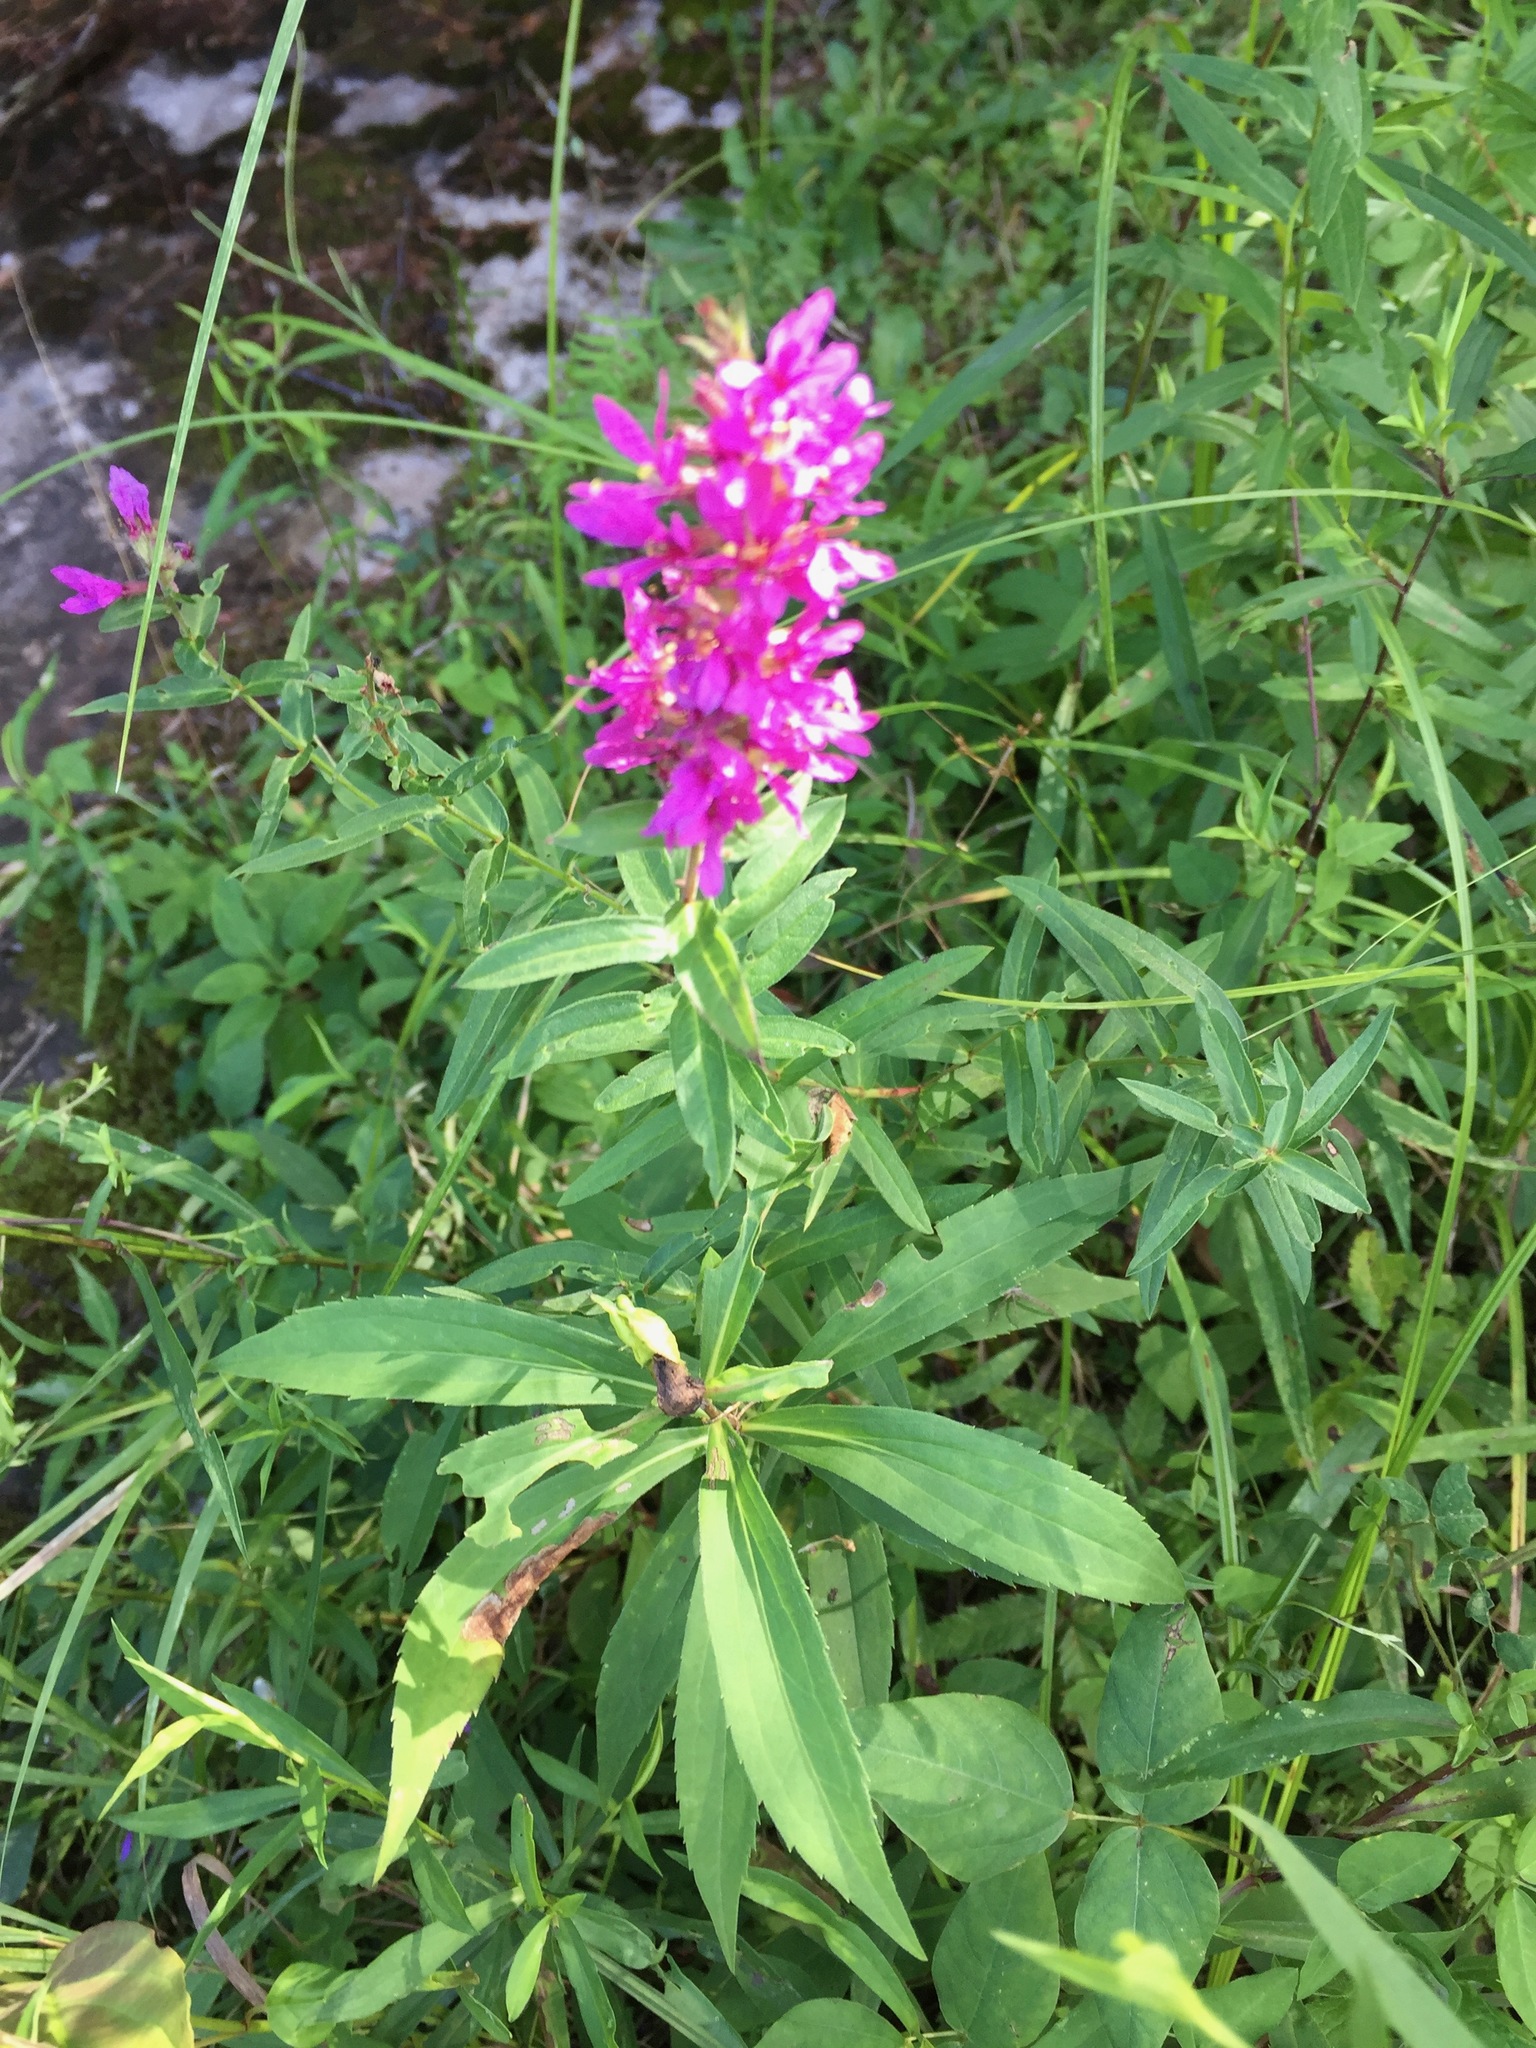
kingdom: Plantae
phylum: Tracheophyta
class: Magnoliopsida
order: Myrtales
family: Lythraceae
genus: Lythrum
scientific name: Lythrum salicaria
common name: Purple loosestrife
